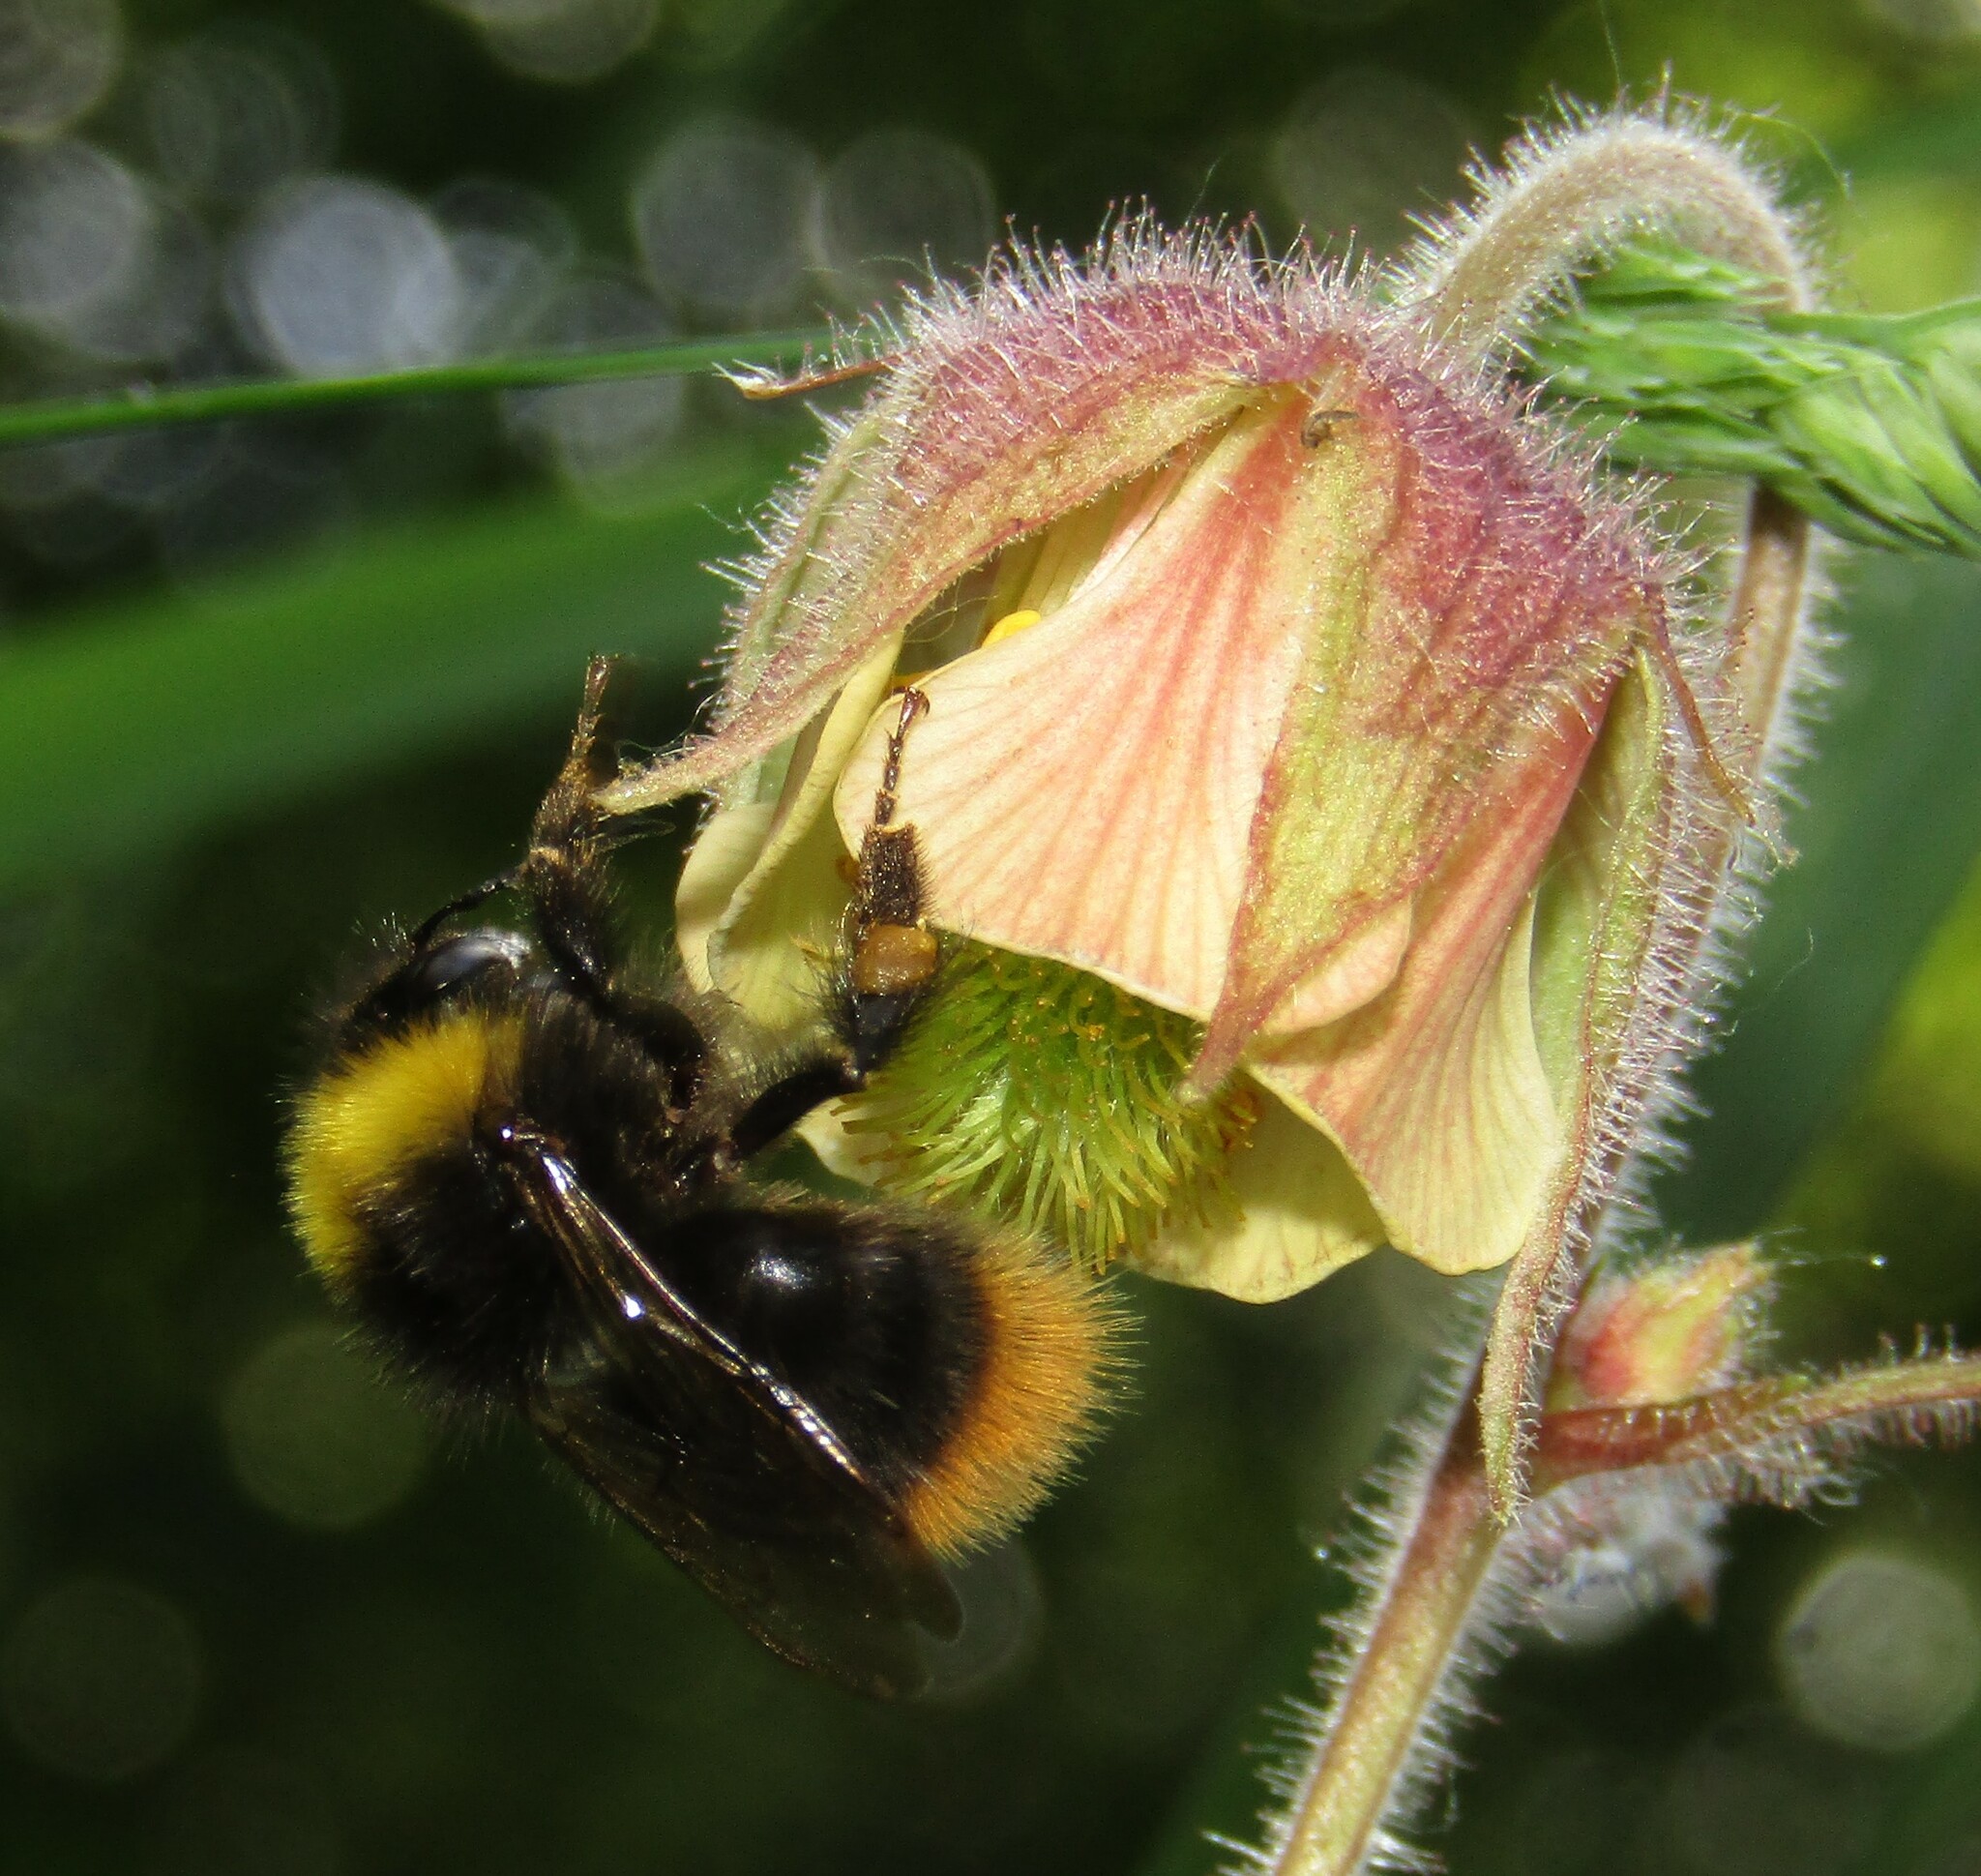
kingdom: Animalia
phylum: Arthropoda
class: Insecta
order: Hymenoptera
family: Apidae
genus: Bombus
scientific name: Bombus pratorum
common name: Early humble-bee
